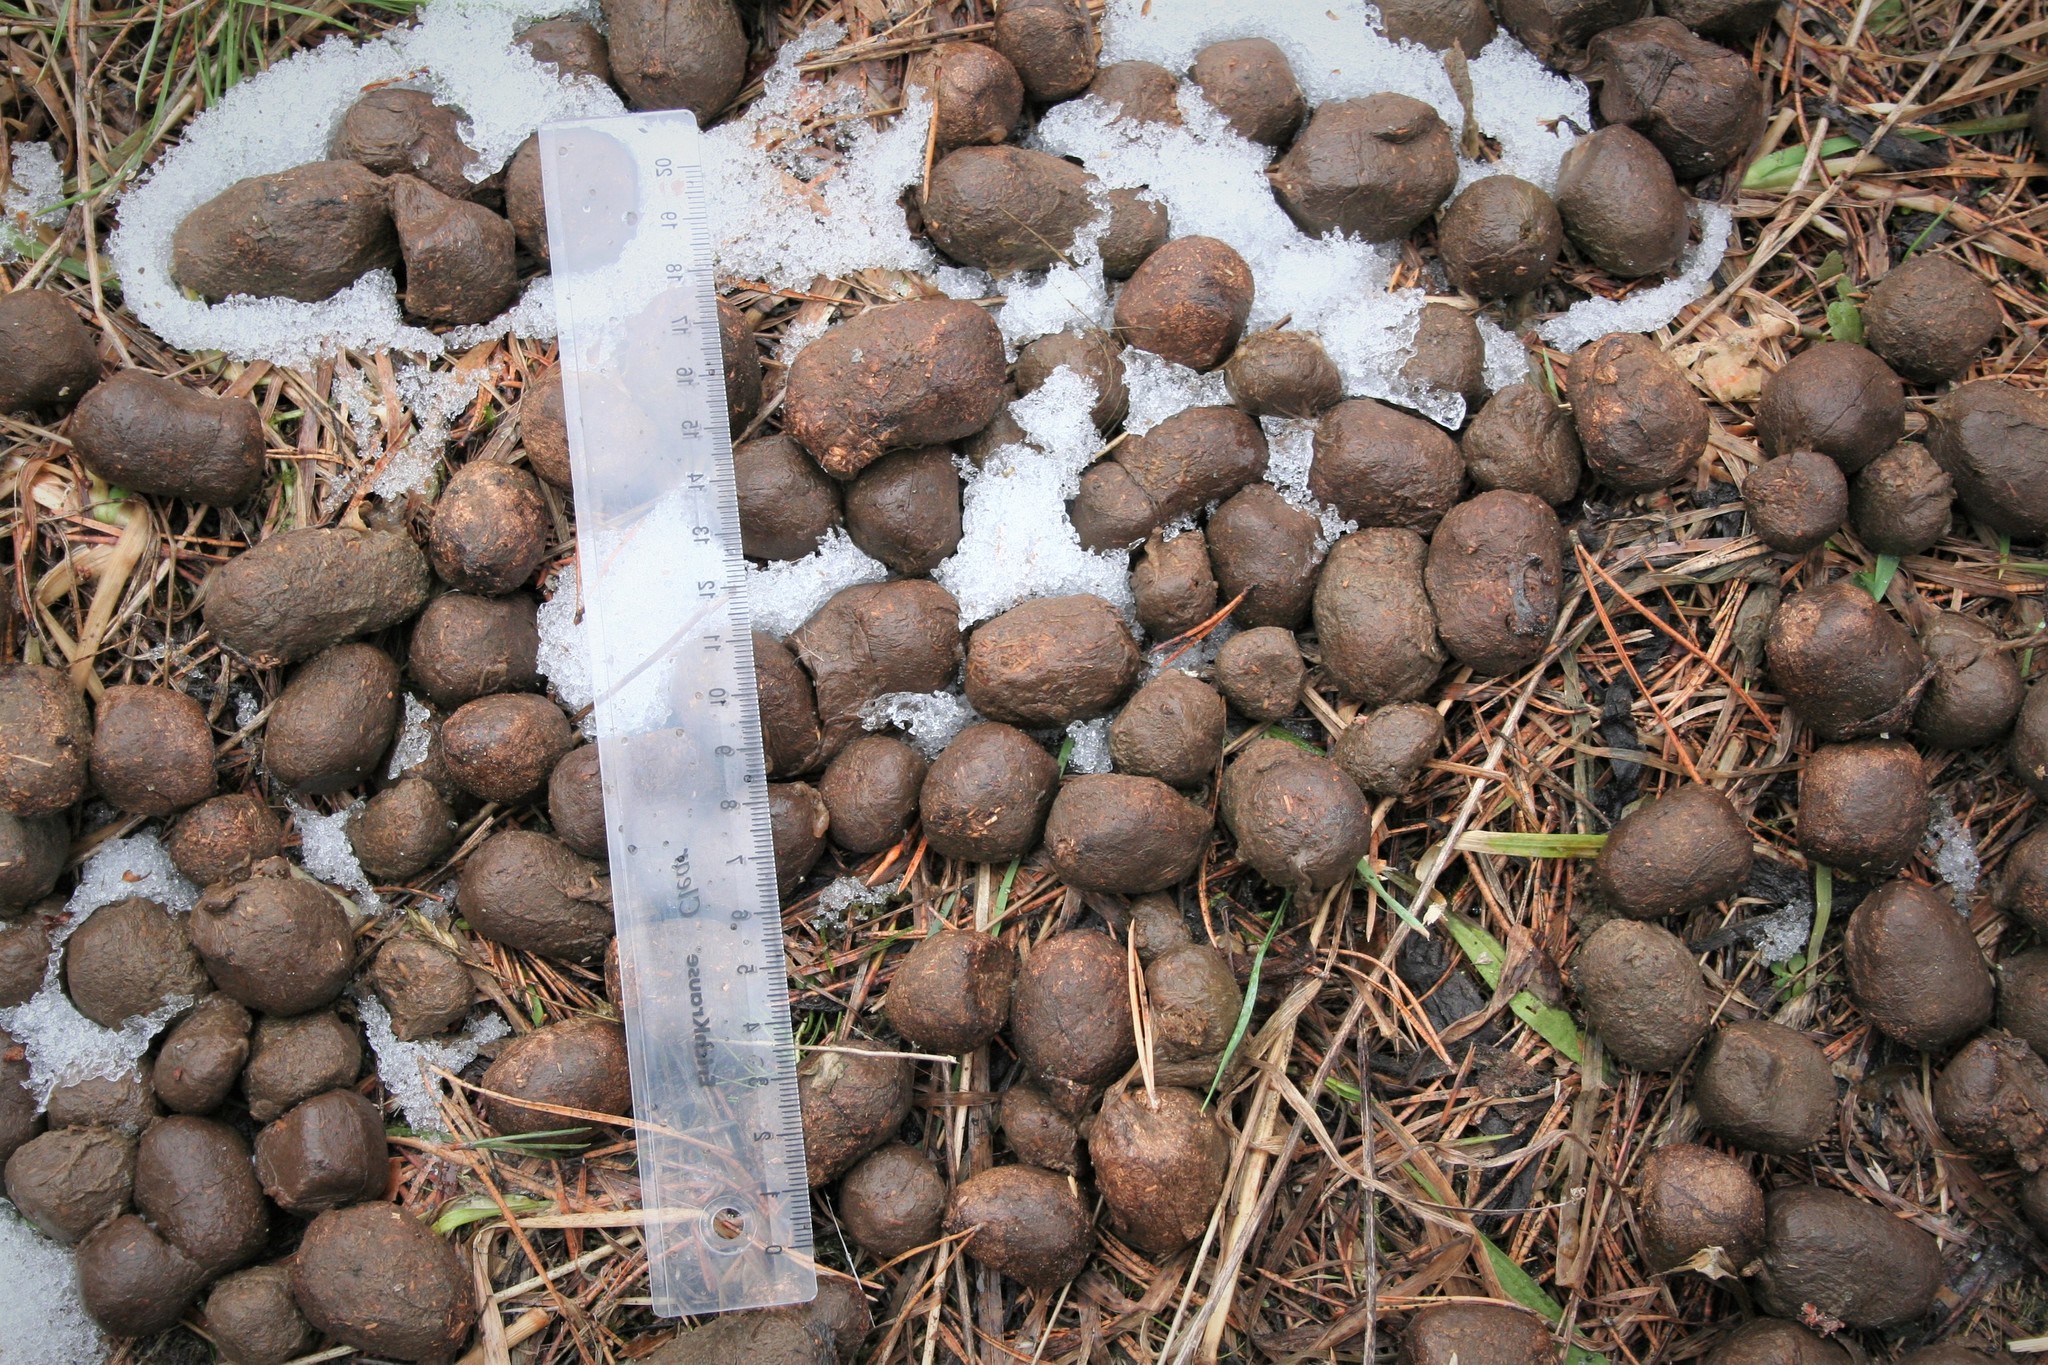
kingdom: Animalia
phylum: Chordata
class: Mammalia
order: Artiodactyla
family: Cervidae
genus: Alces
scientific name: Alces alces
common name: Moose
